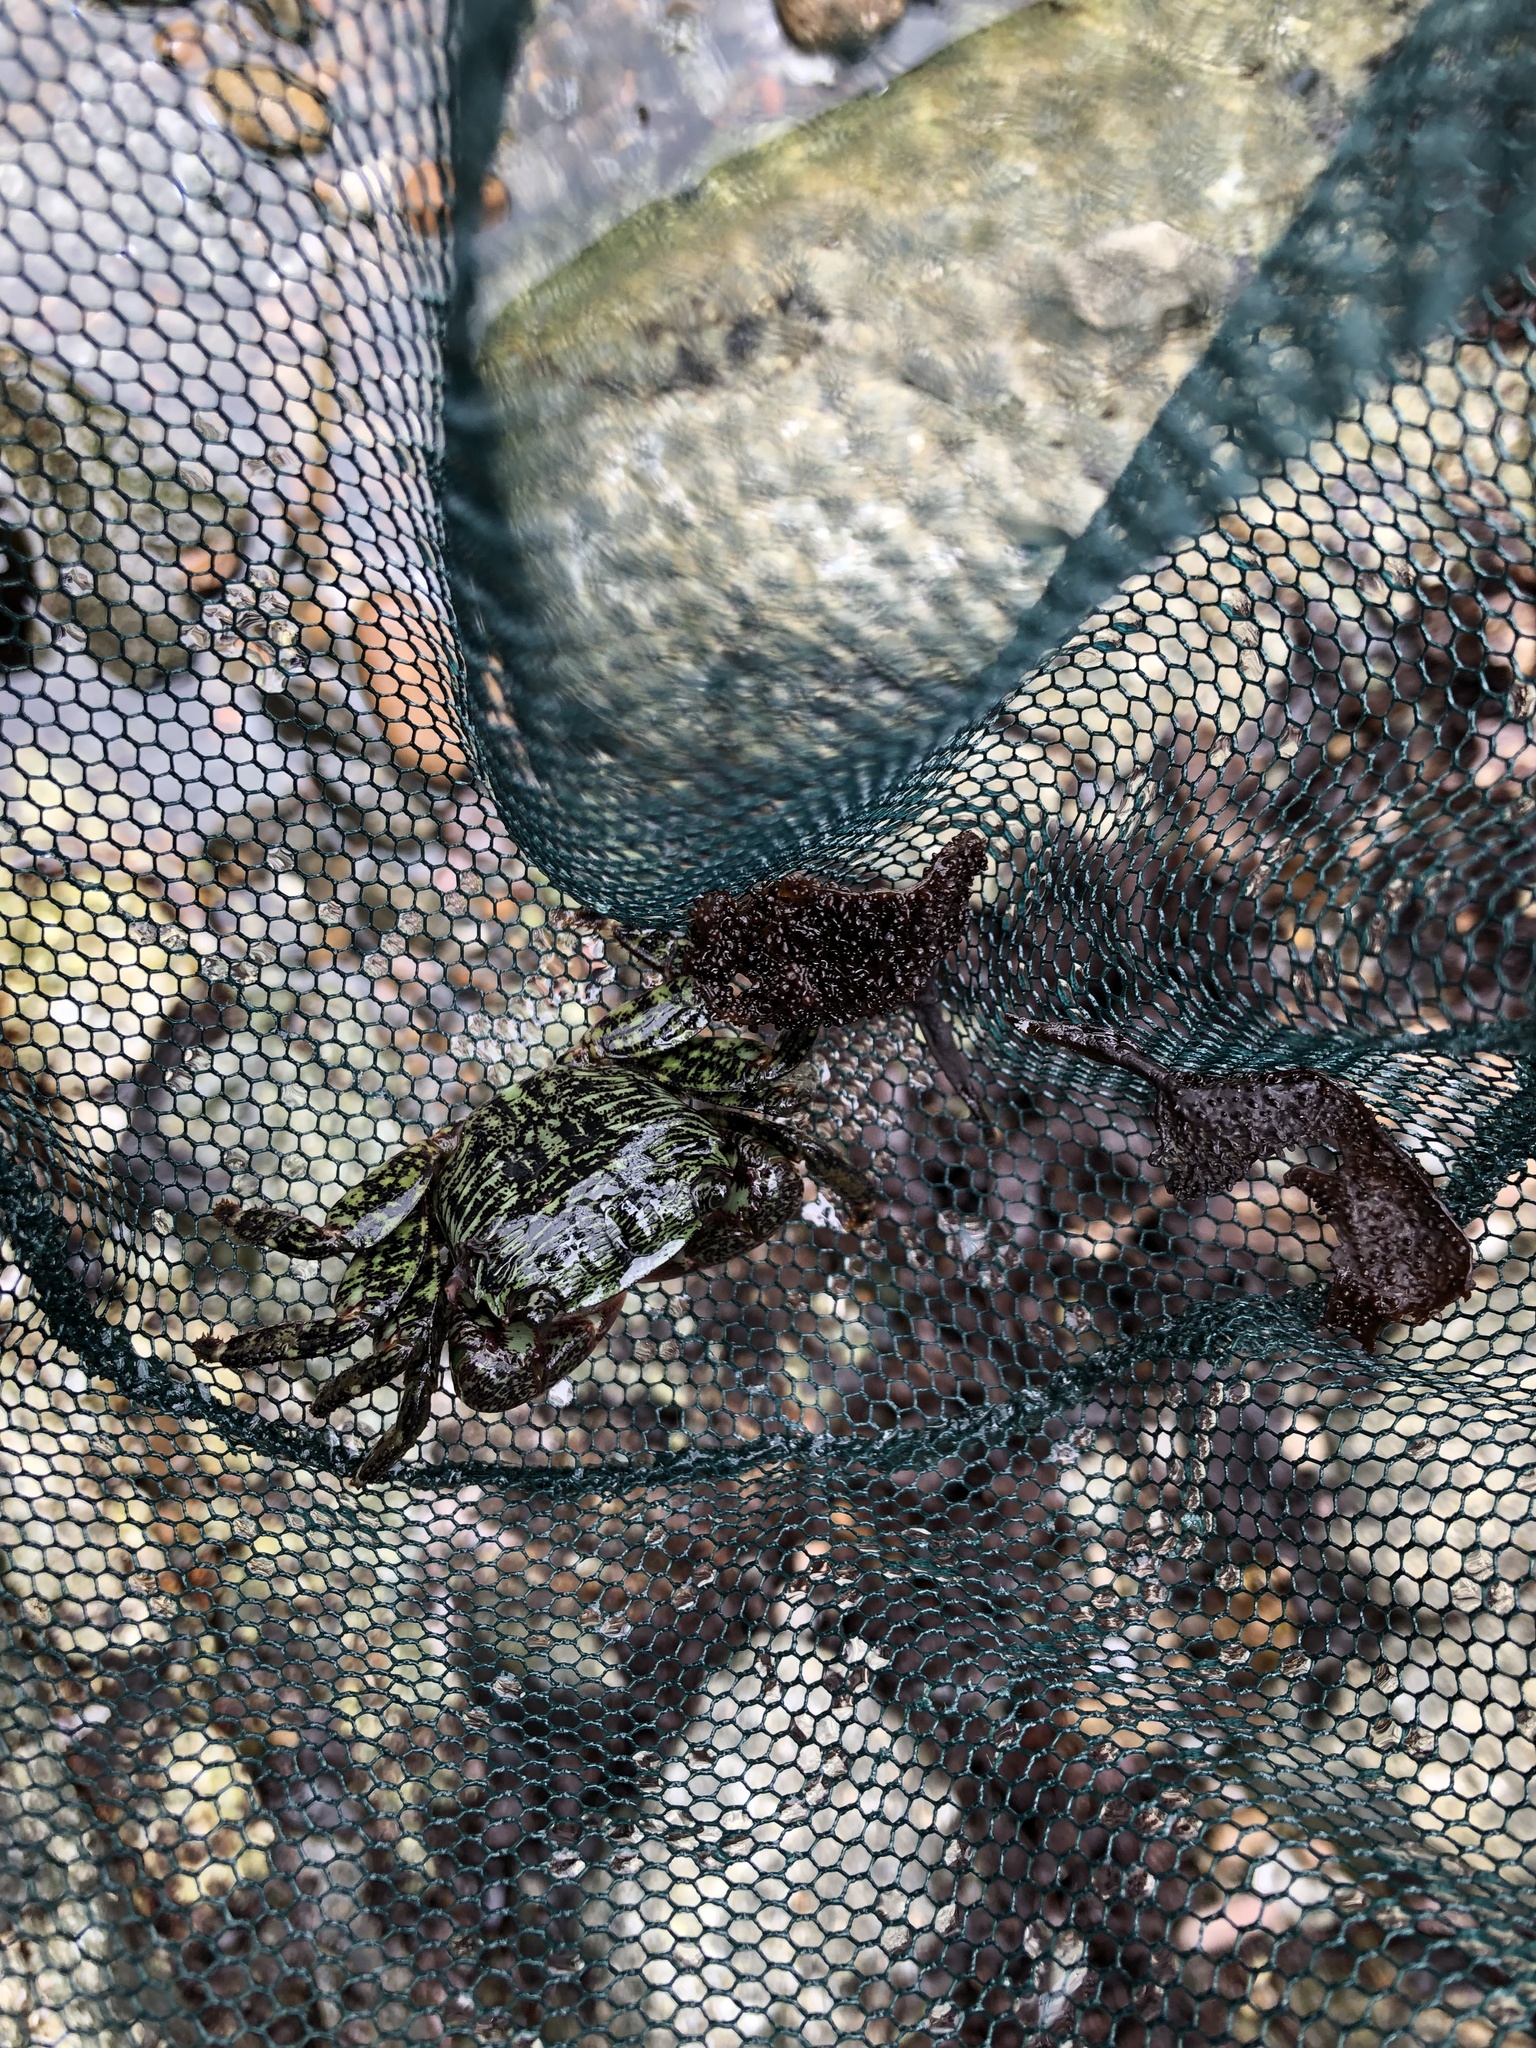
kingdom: Animalia
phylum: Arthropoda
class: Malacostraca
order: Decapoda
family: Grapsidae
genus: Pachygrapsus
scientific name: Pachygrapsus crassipes
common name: Striped shore crab
